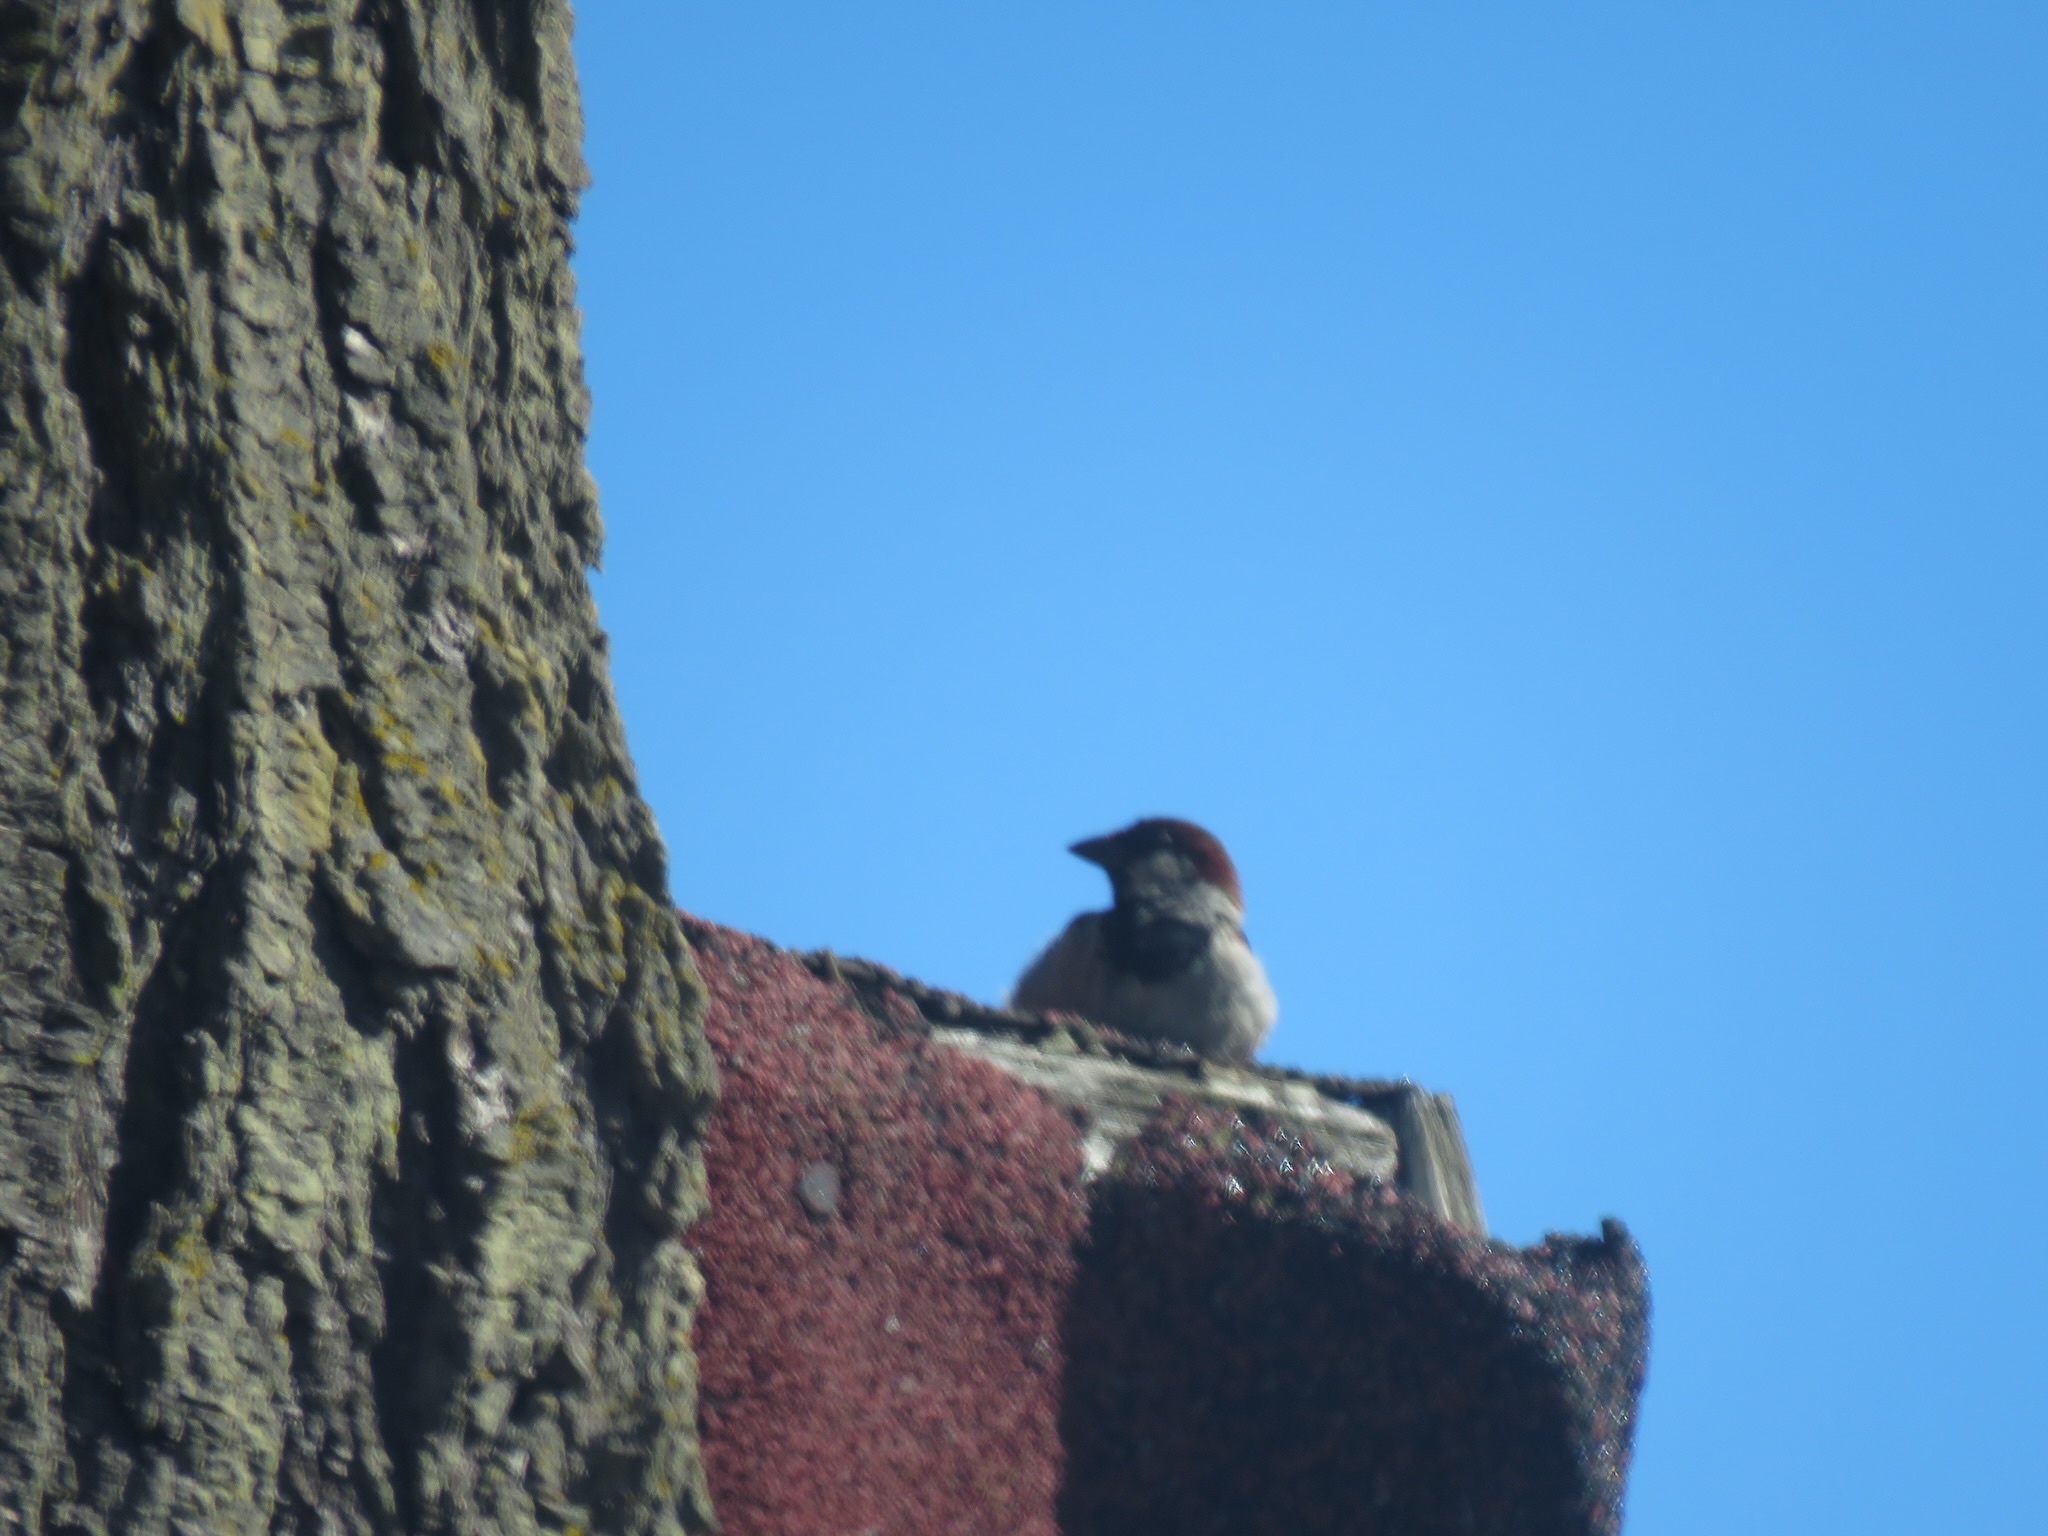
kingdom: Animalia
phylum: Chordata
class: Aves
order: Passeriformes
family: Passeridae
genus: Passer
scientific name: Passer domesticus
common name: House sparrow
